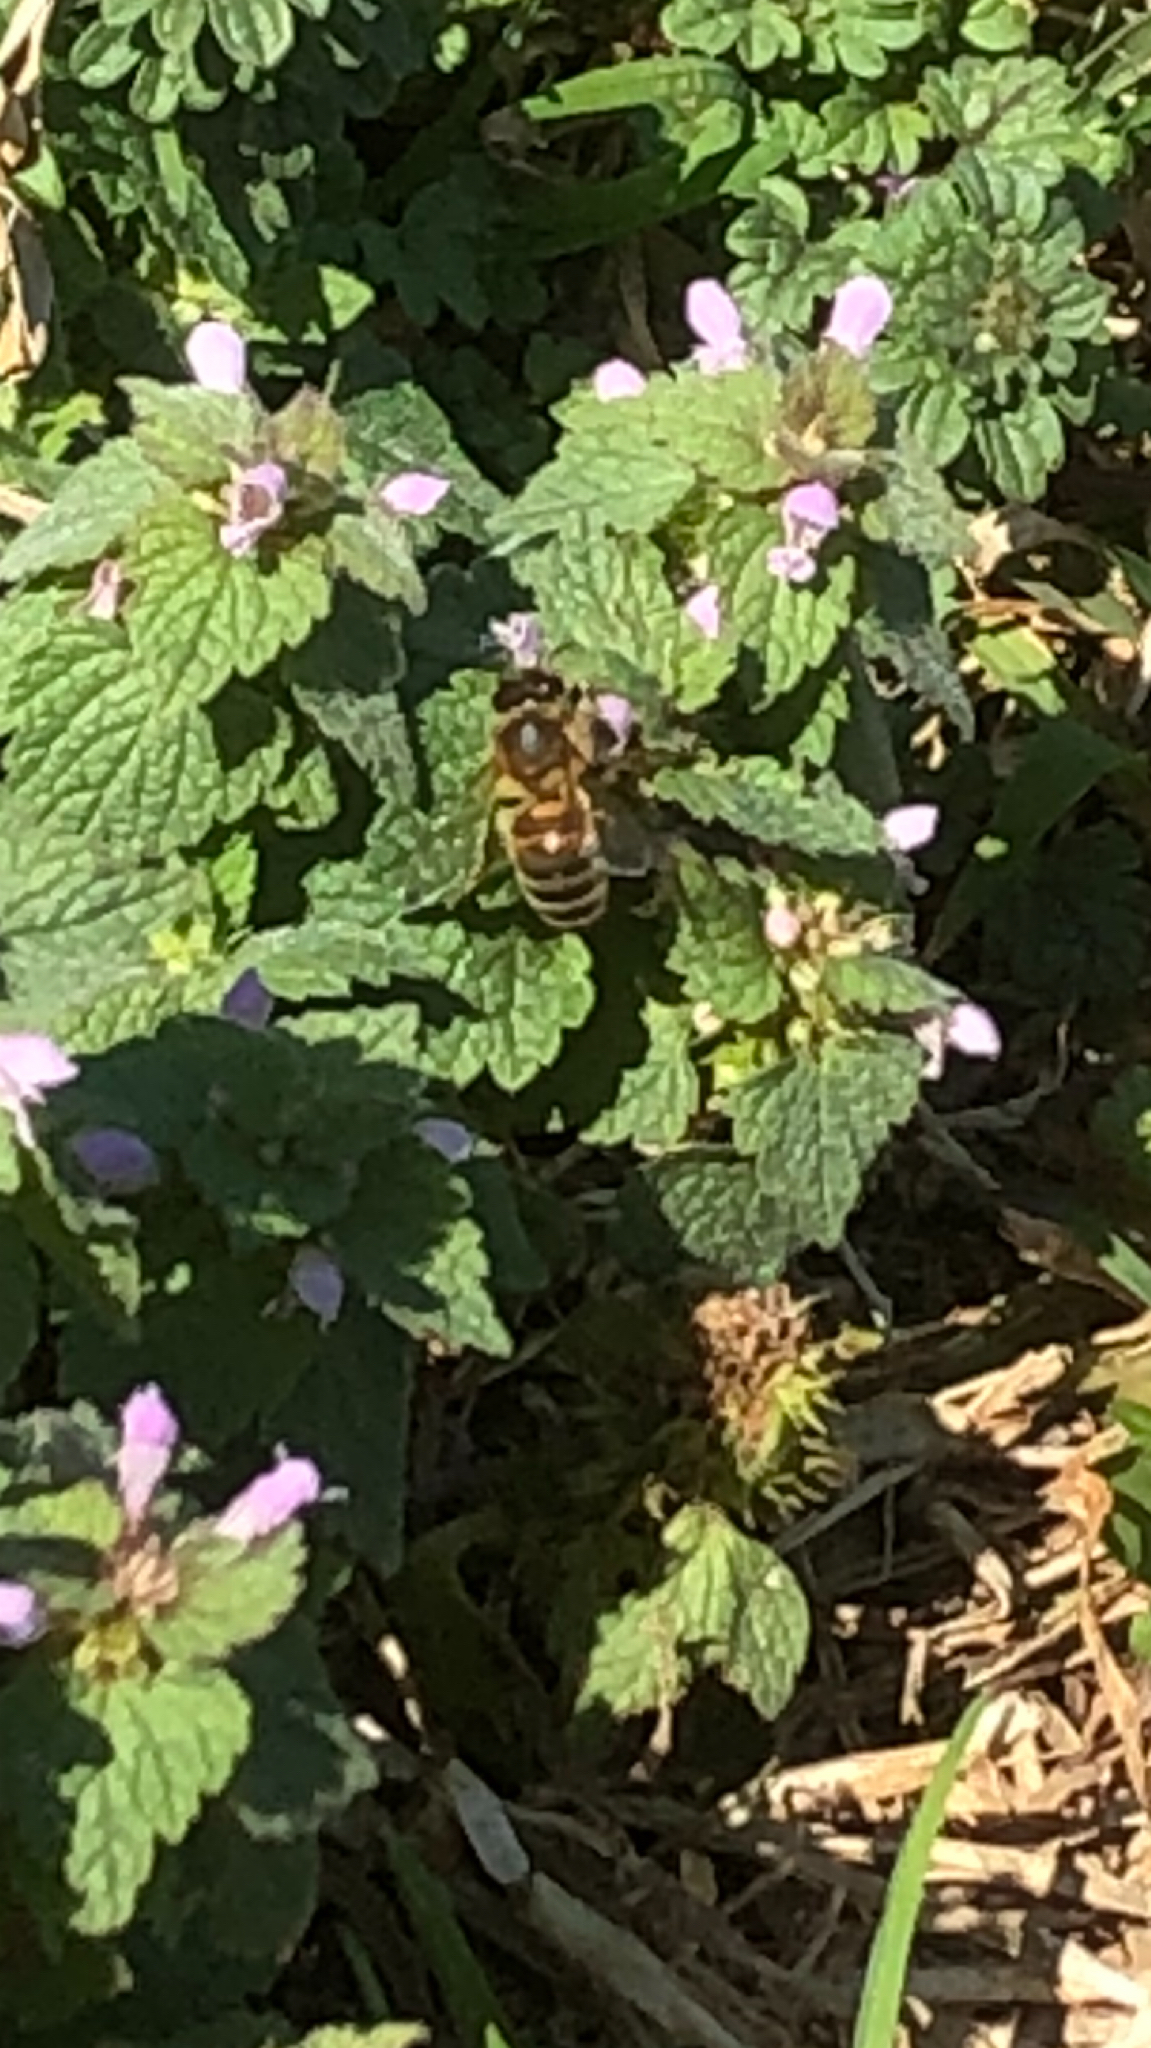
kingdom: Animalia
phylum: Arthropoda
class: Insecta
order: Hymenoptera
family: Apidae
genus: Apis
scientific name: Apis mellifera
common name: Honey bee
